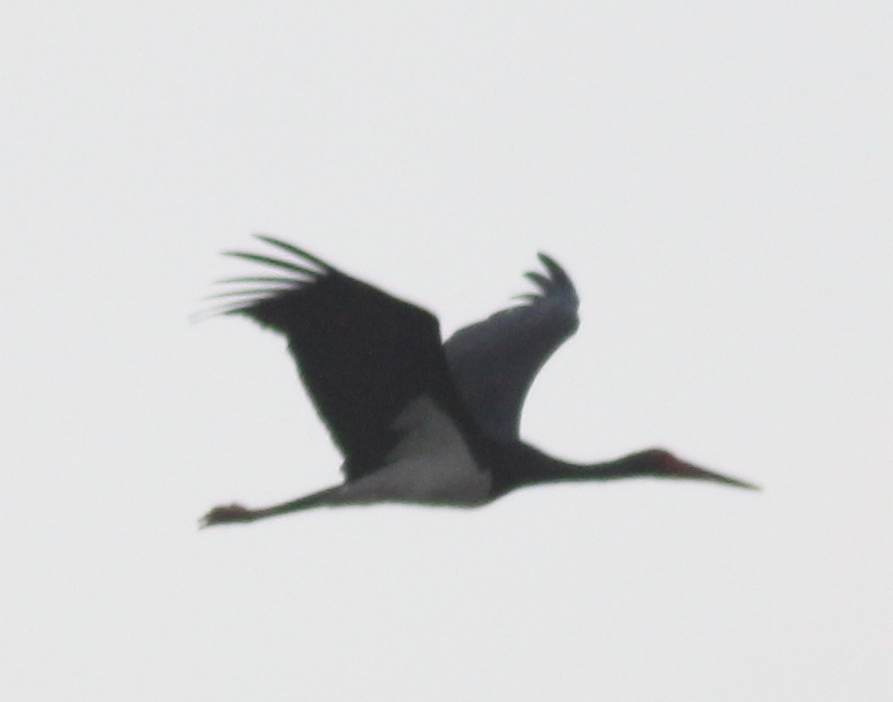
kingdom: Animalia
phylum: Chordata
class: Aves
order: Ciconiiformes
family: Ciconiidae
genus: Ciconia
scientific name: Ciconia nigra
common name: Black stork
